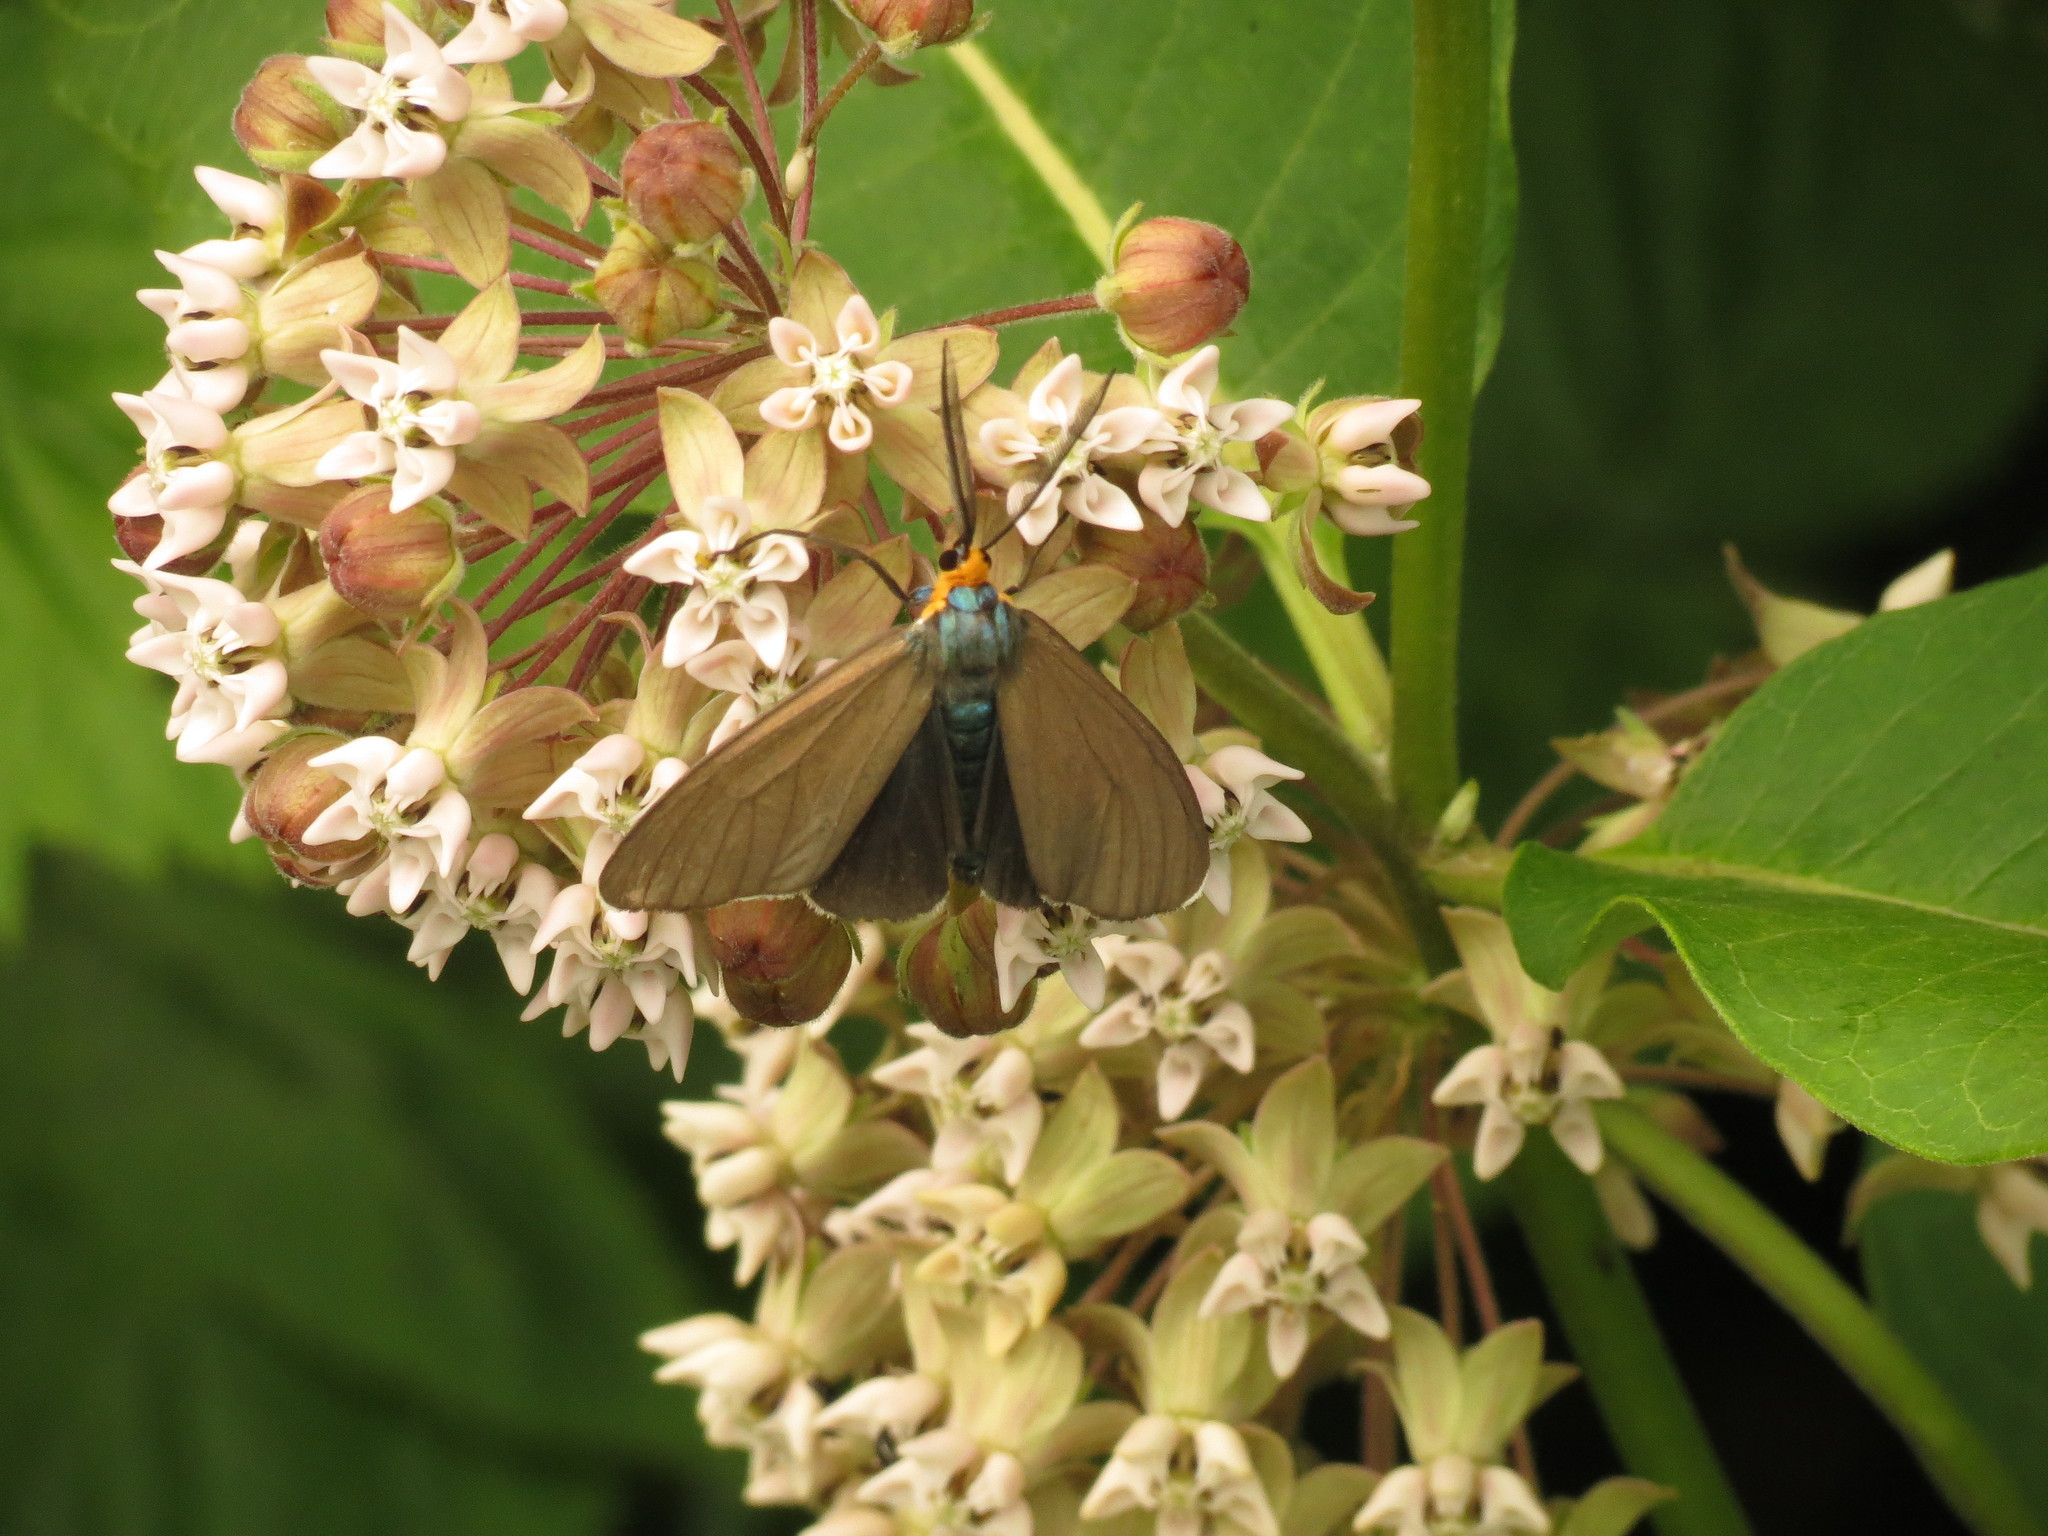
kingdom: Animalia
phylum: Arthropoda
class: Insecta
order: Lepidoptera
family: Erebidae
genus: Ctenucha
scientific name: Ctenucha virginica
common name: Virginia ctenucha moth
